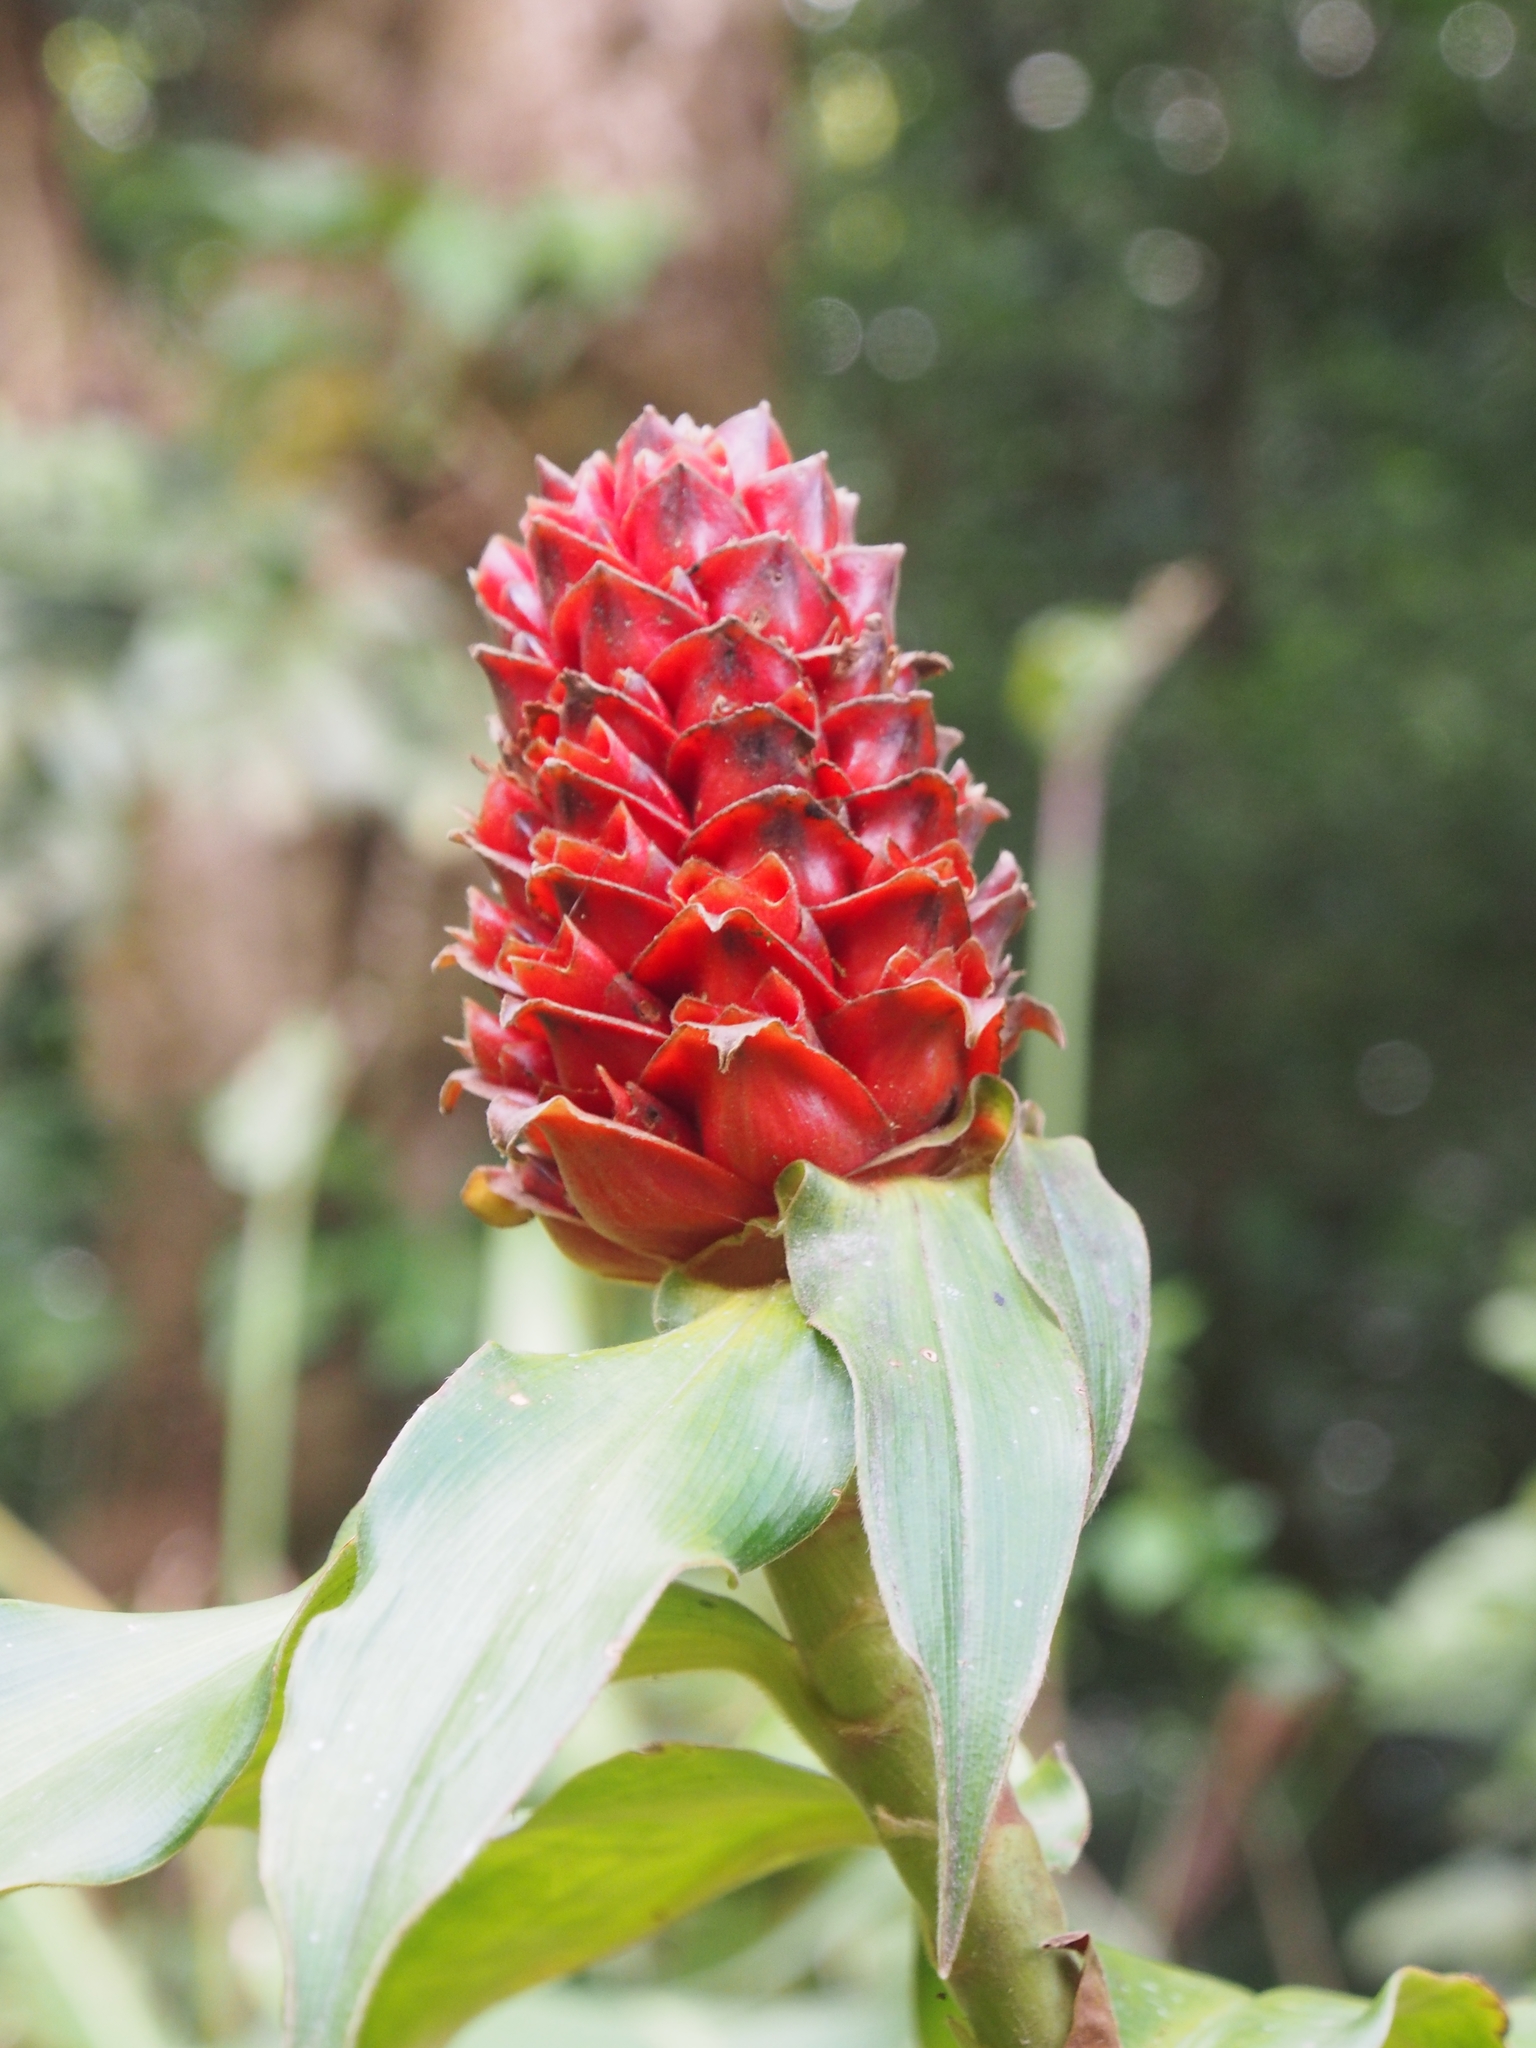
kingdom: Plantae
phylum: Tracheophyta
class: Liliopsida
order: Zingiberales
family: Costaceae
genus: Costus
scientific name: Costus montanus
